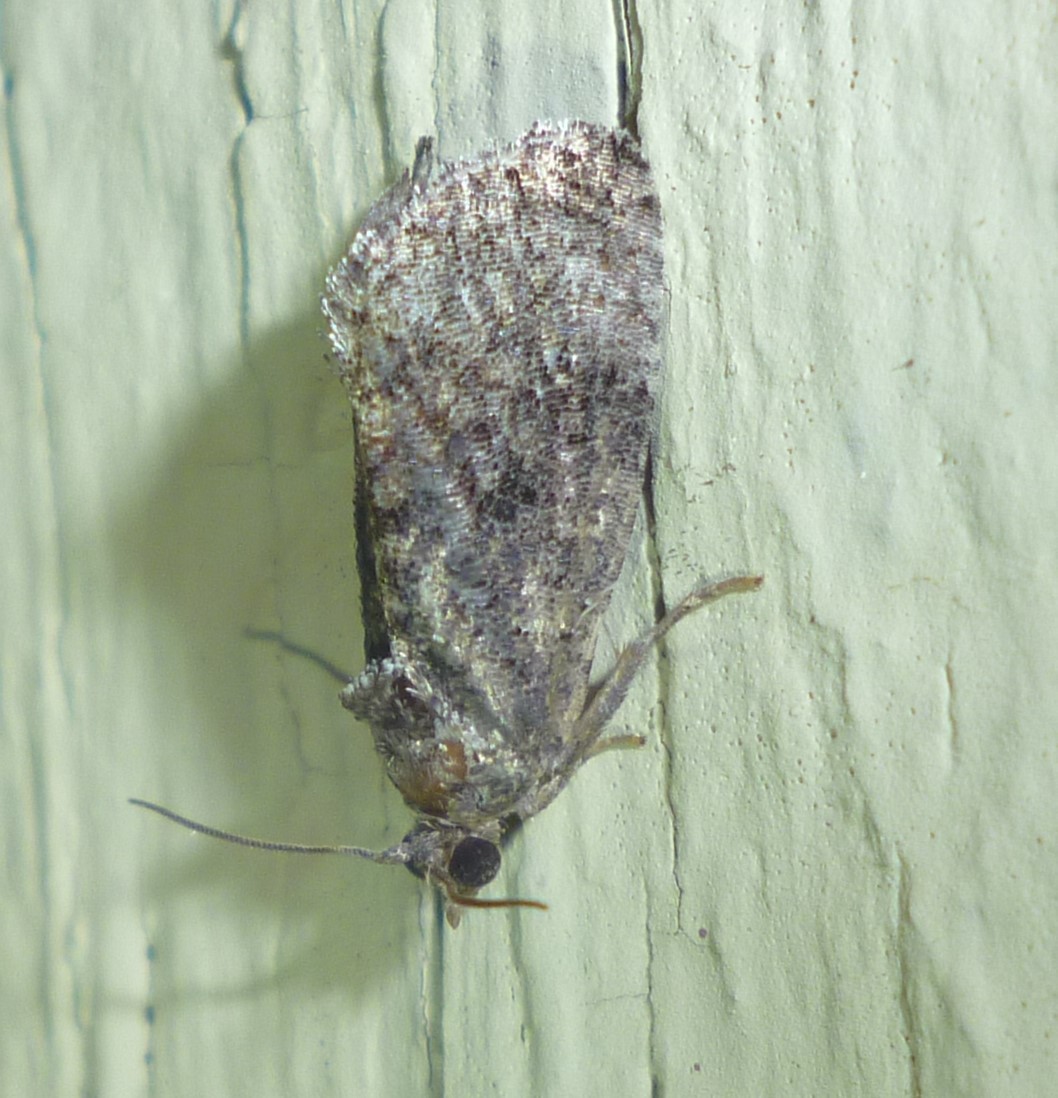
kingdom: Animalia
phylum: Arthropoda
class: Insecta
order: Lepidoptera
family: Tortricidae
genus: Gymnandrosoma
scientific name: Gymnandrosoma punctidiscanum
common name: Dotted ecdytolopha moth
